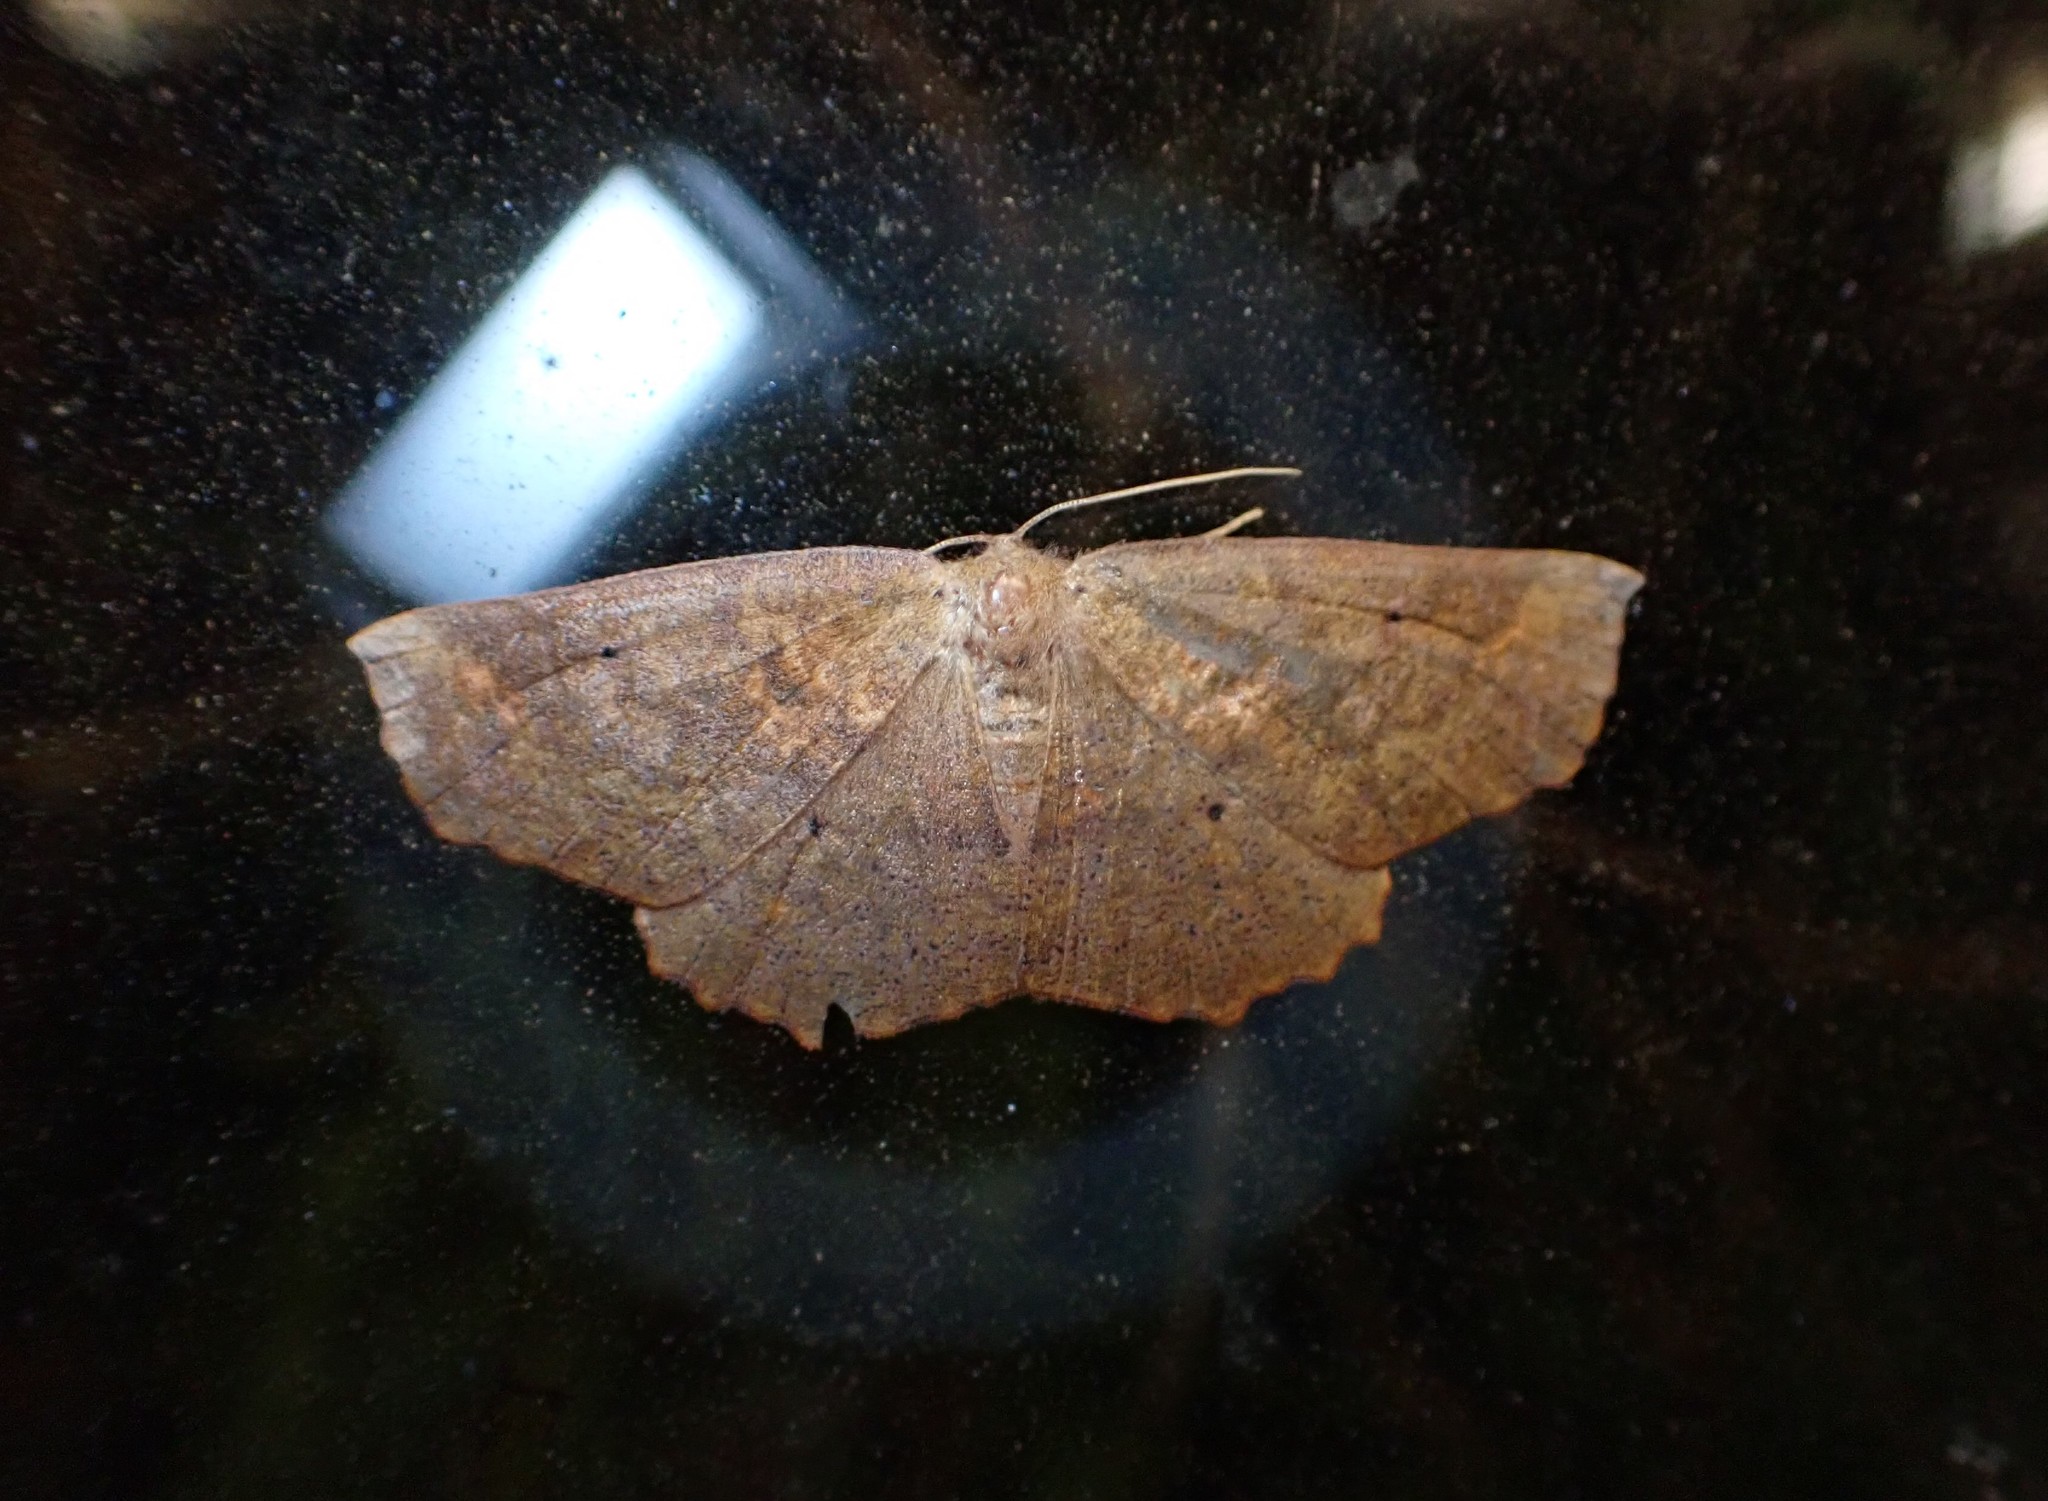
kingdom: Animalia
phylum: Arthropoda
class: Insecta
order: Lepidoptera
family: Geometridae
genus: Xyridacma
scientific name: Xyridacma ustaria
